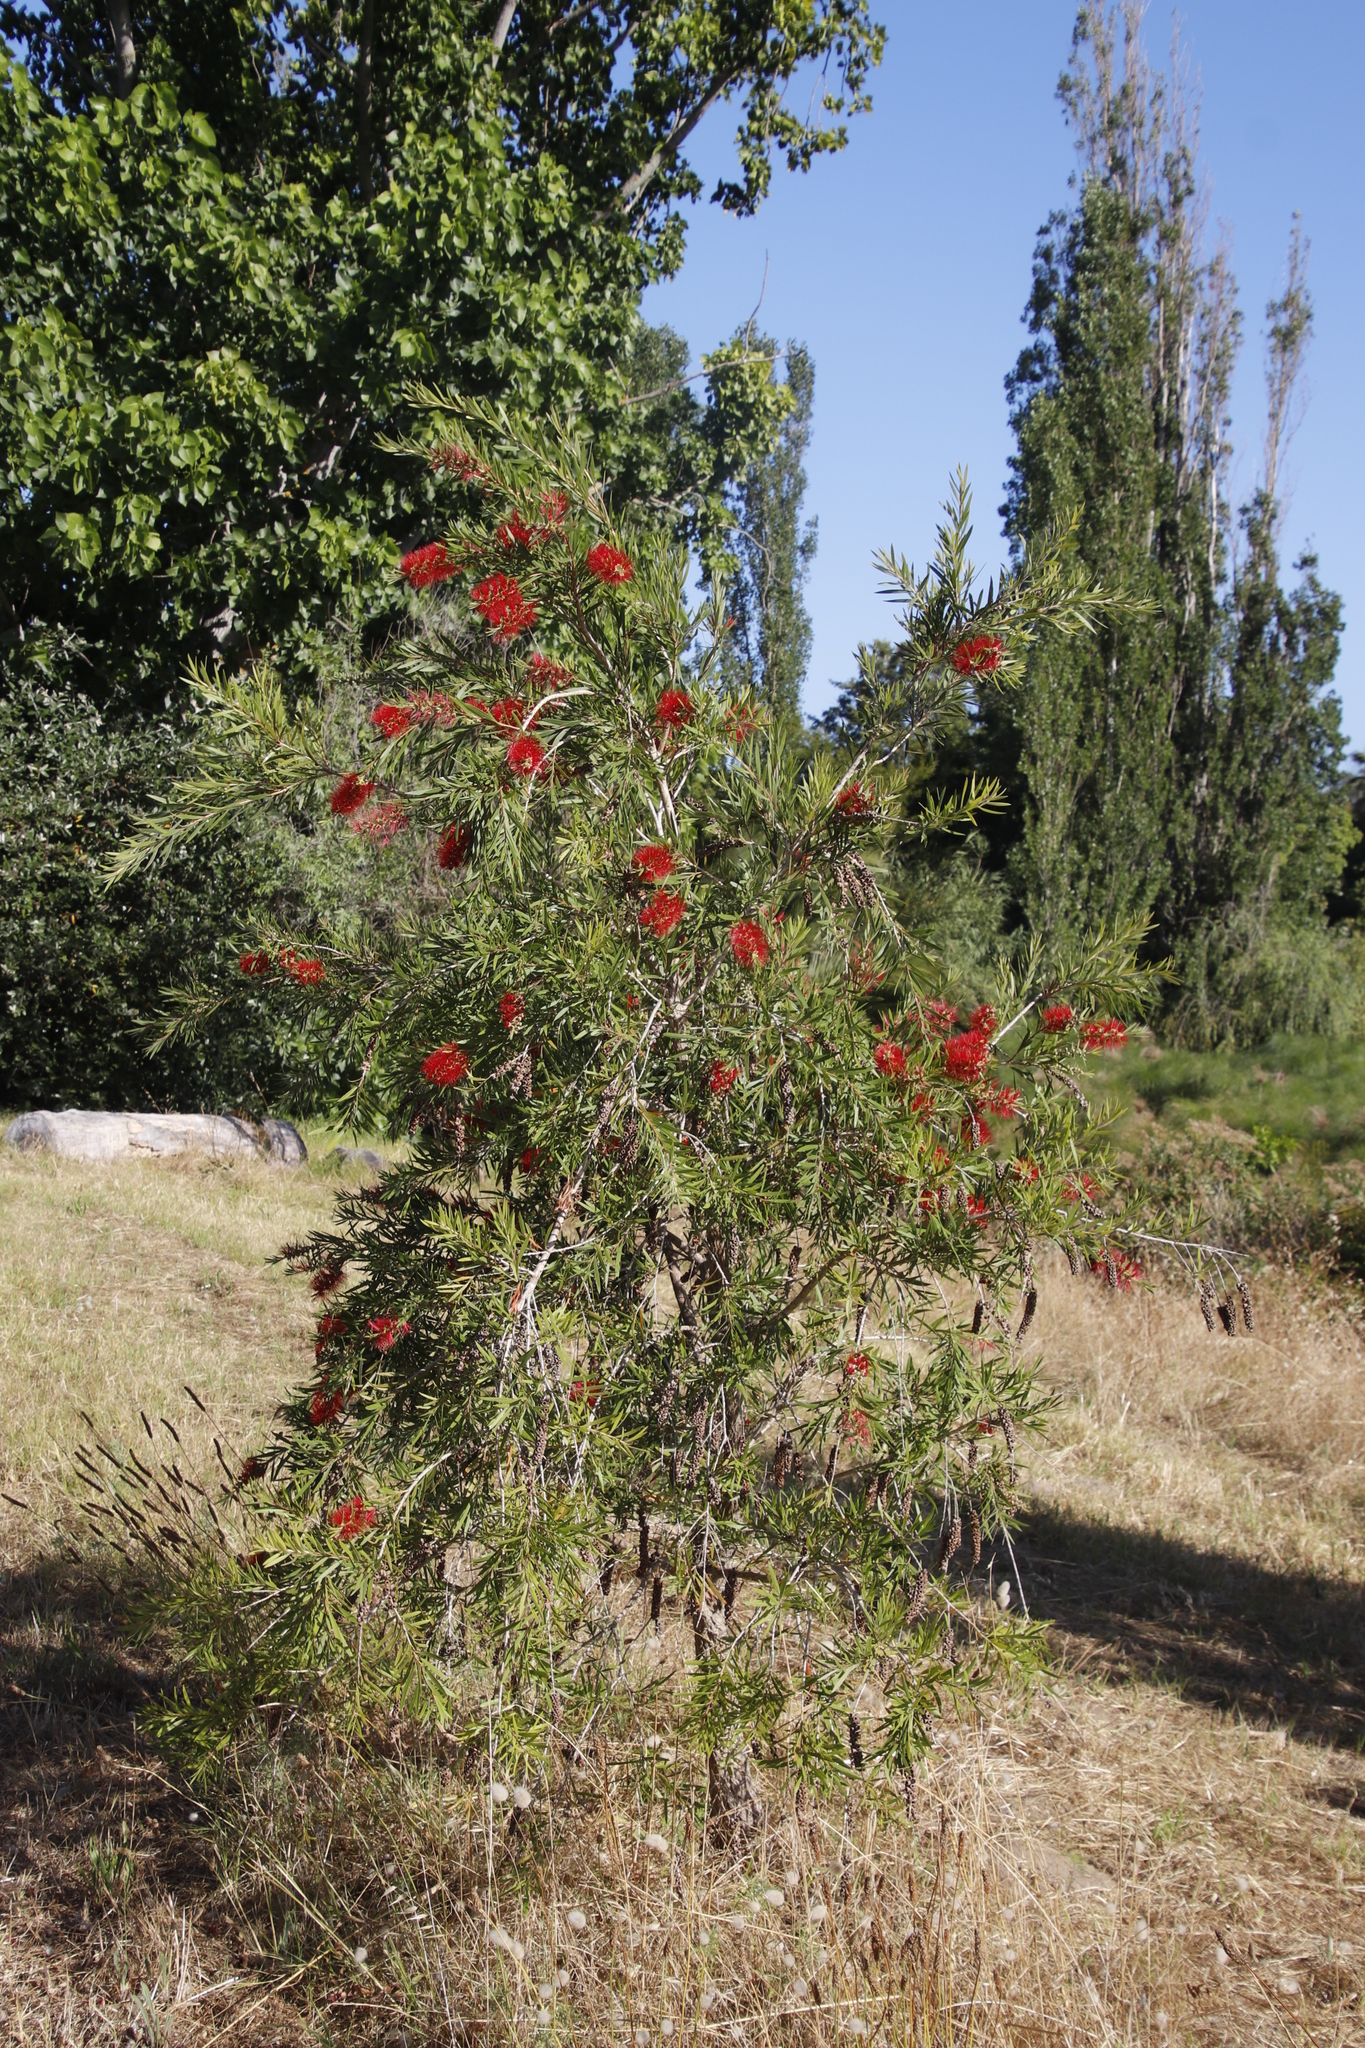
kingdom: Plantae
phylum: Tracheophyta
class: Magnoliopsida
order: Myrtales
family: Myrtaceae
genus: Callistemon
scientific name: Callistemon viminalis
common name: Drooping bottlebrush
